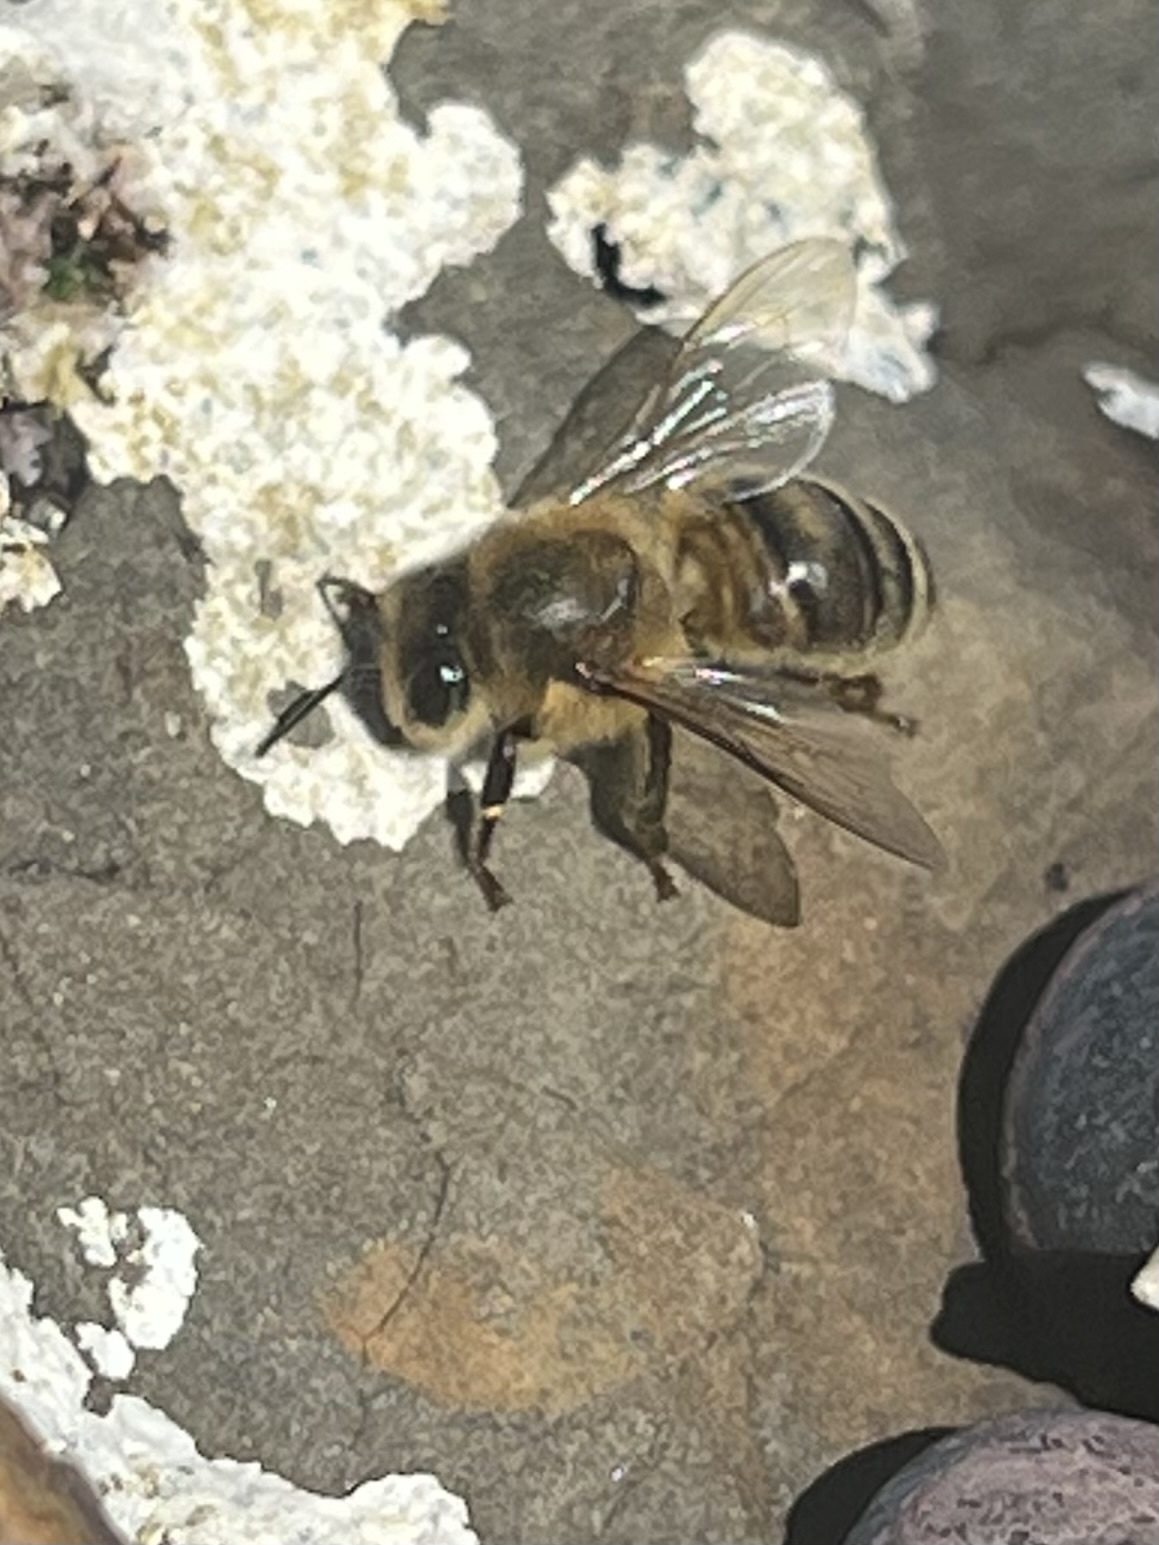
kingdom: Animalia
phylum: Arthropoda
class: Insecta
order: Hymenoptera
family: Apidae
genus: Apis
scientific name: Apis mellifera
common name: Honey bee
